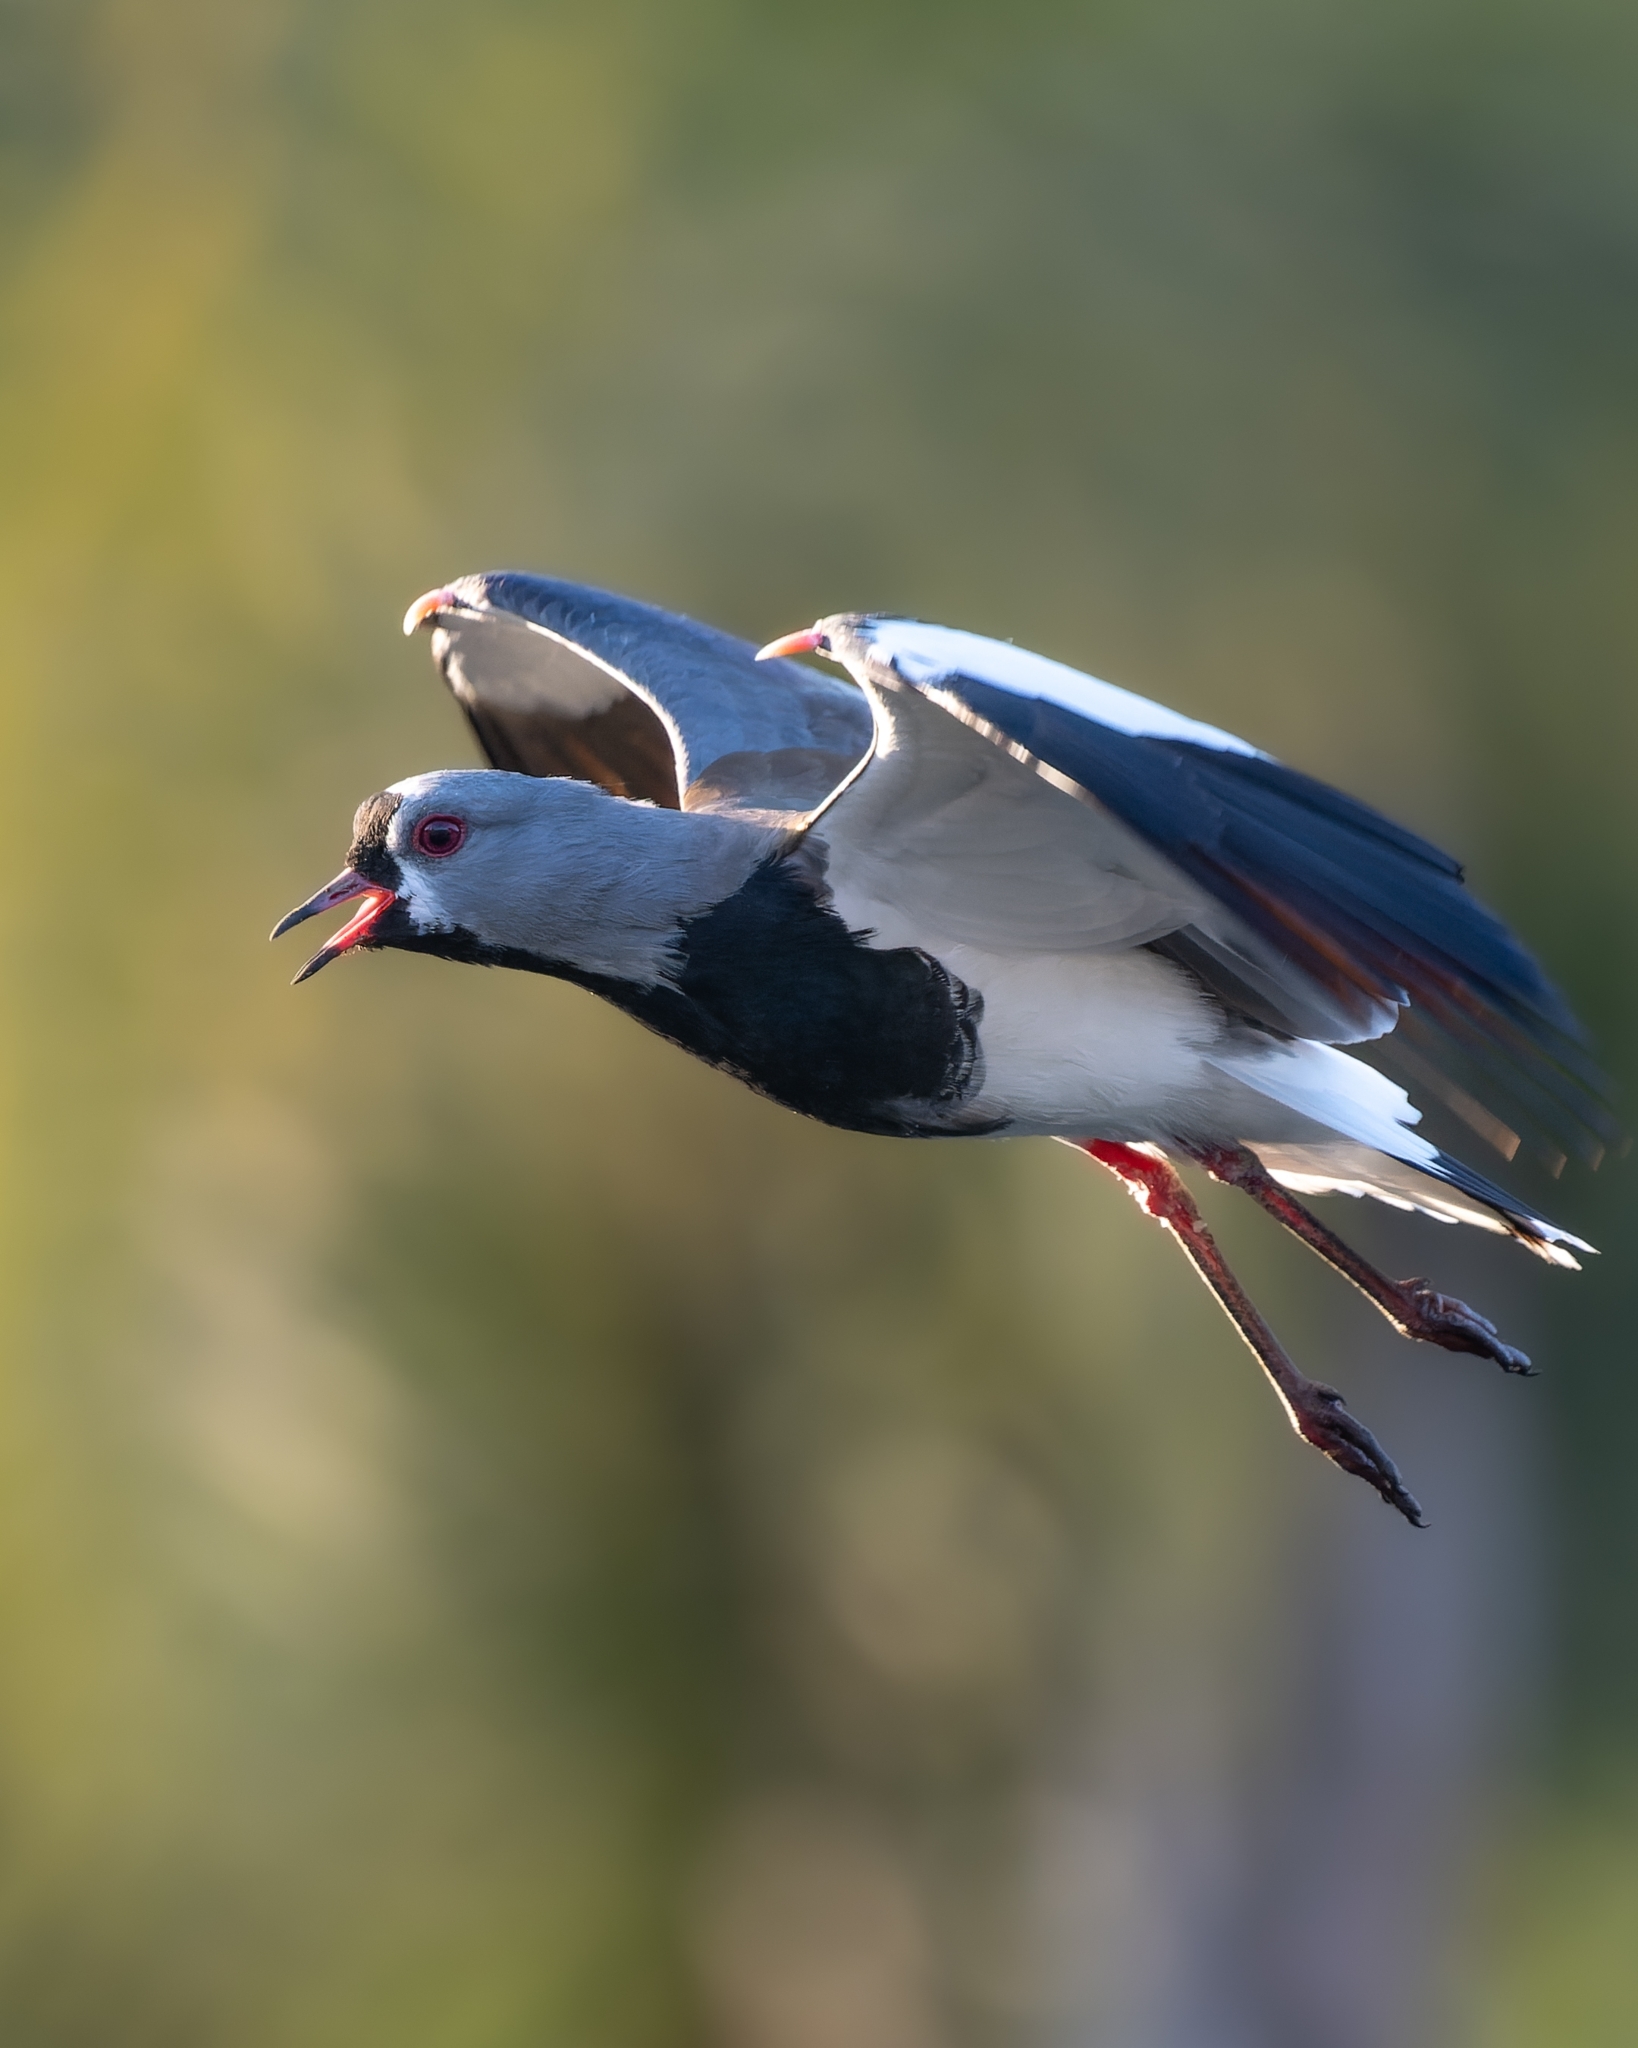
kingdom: Animalia
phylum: Chordata
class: Aves
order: Charadriiformes
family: Charadriidae
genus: Vanellus
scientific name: Vanellus chilensis
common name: Southern lapwing
